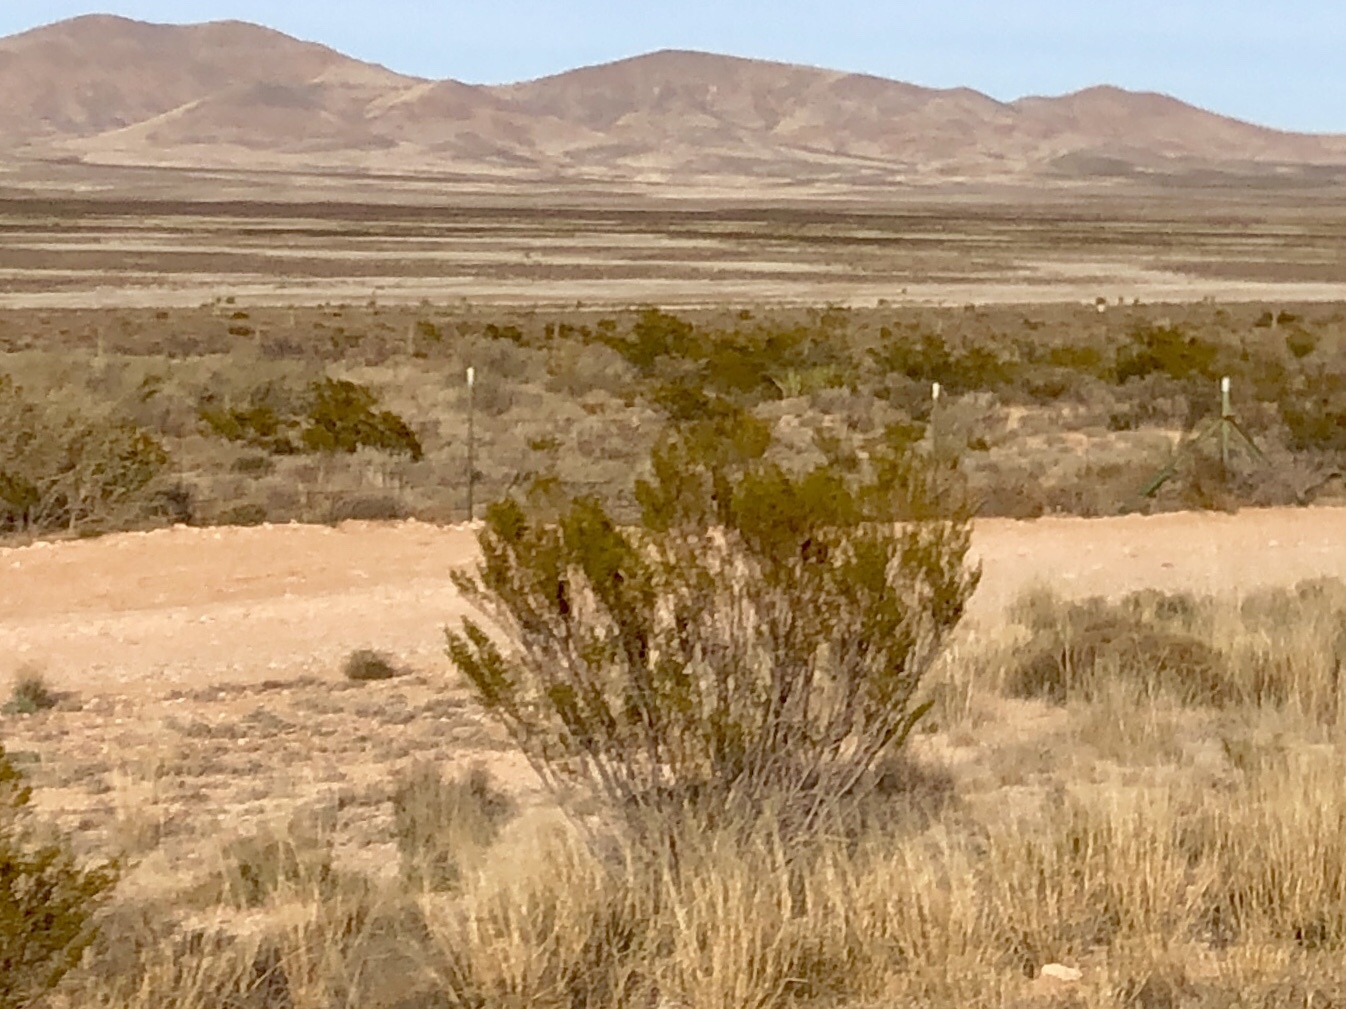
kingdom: Plantae
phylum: Tracheophyta
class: Magnoliopsida
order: Zygophyllales
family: Zygophyllaceae
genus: Larrea
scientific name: Larrea tridentata
